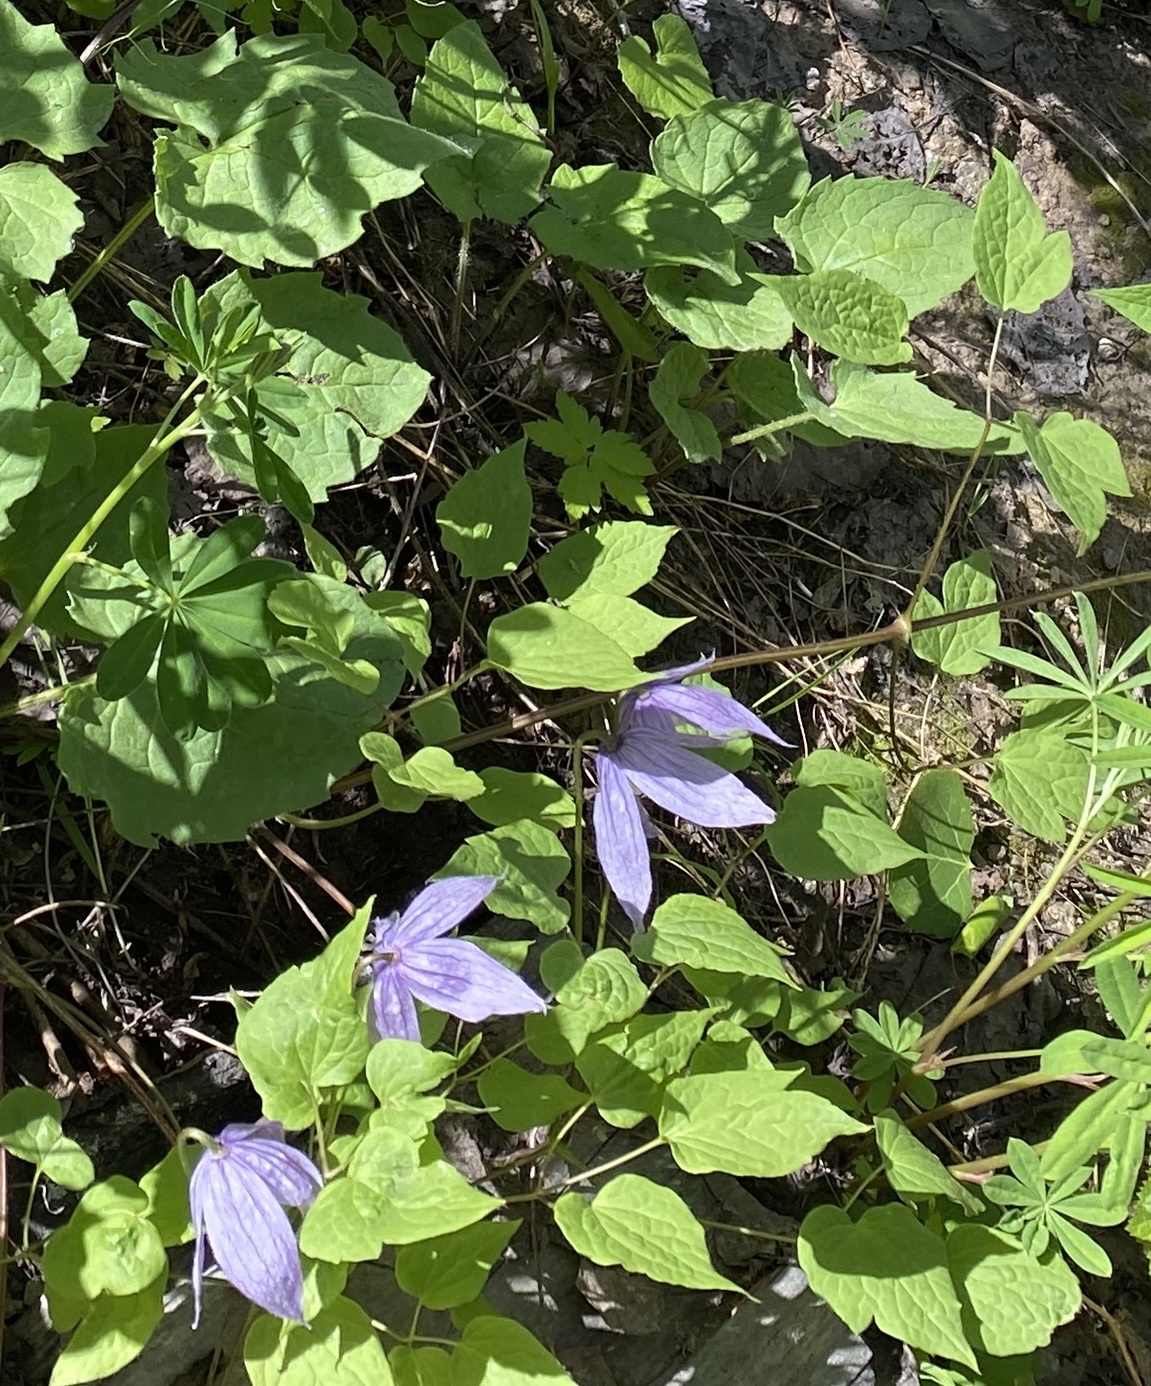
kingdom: Plantae
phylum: Tracheophyta
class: Magnoliopsida
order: Ranunculales
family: Ranunculaceae
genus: Clematis
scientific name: Clematis occidentalis
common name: Purple clematis
